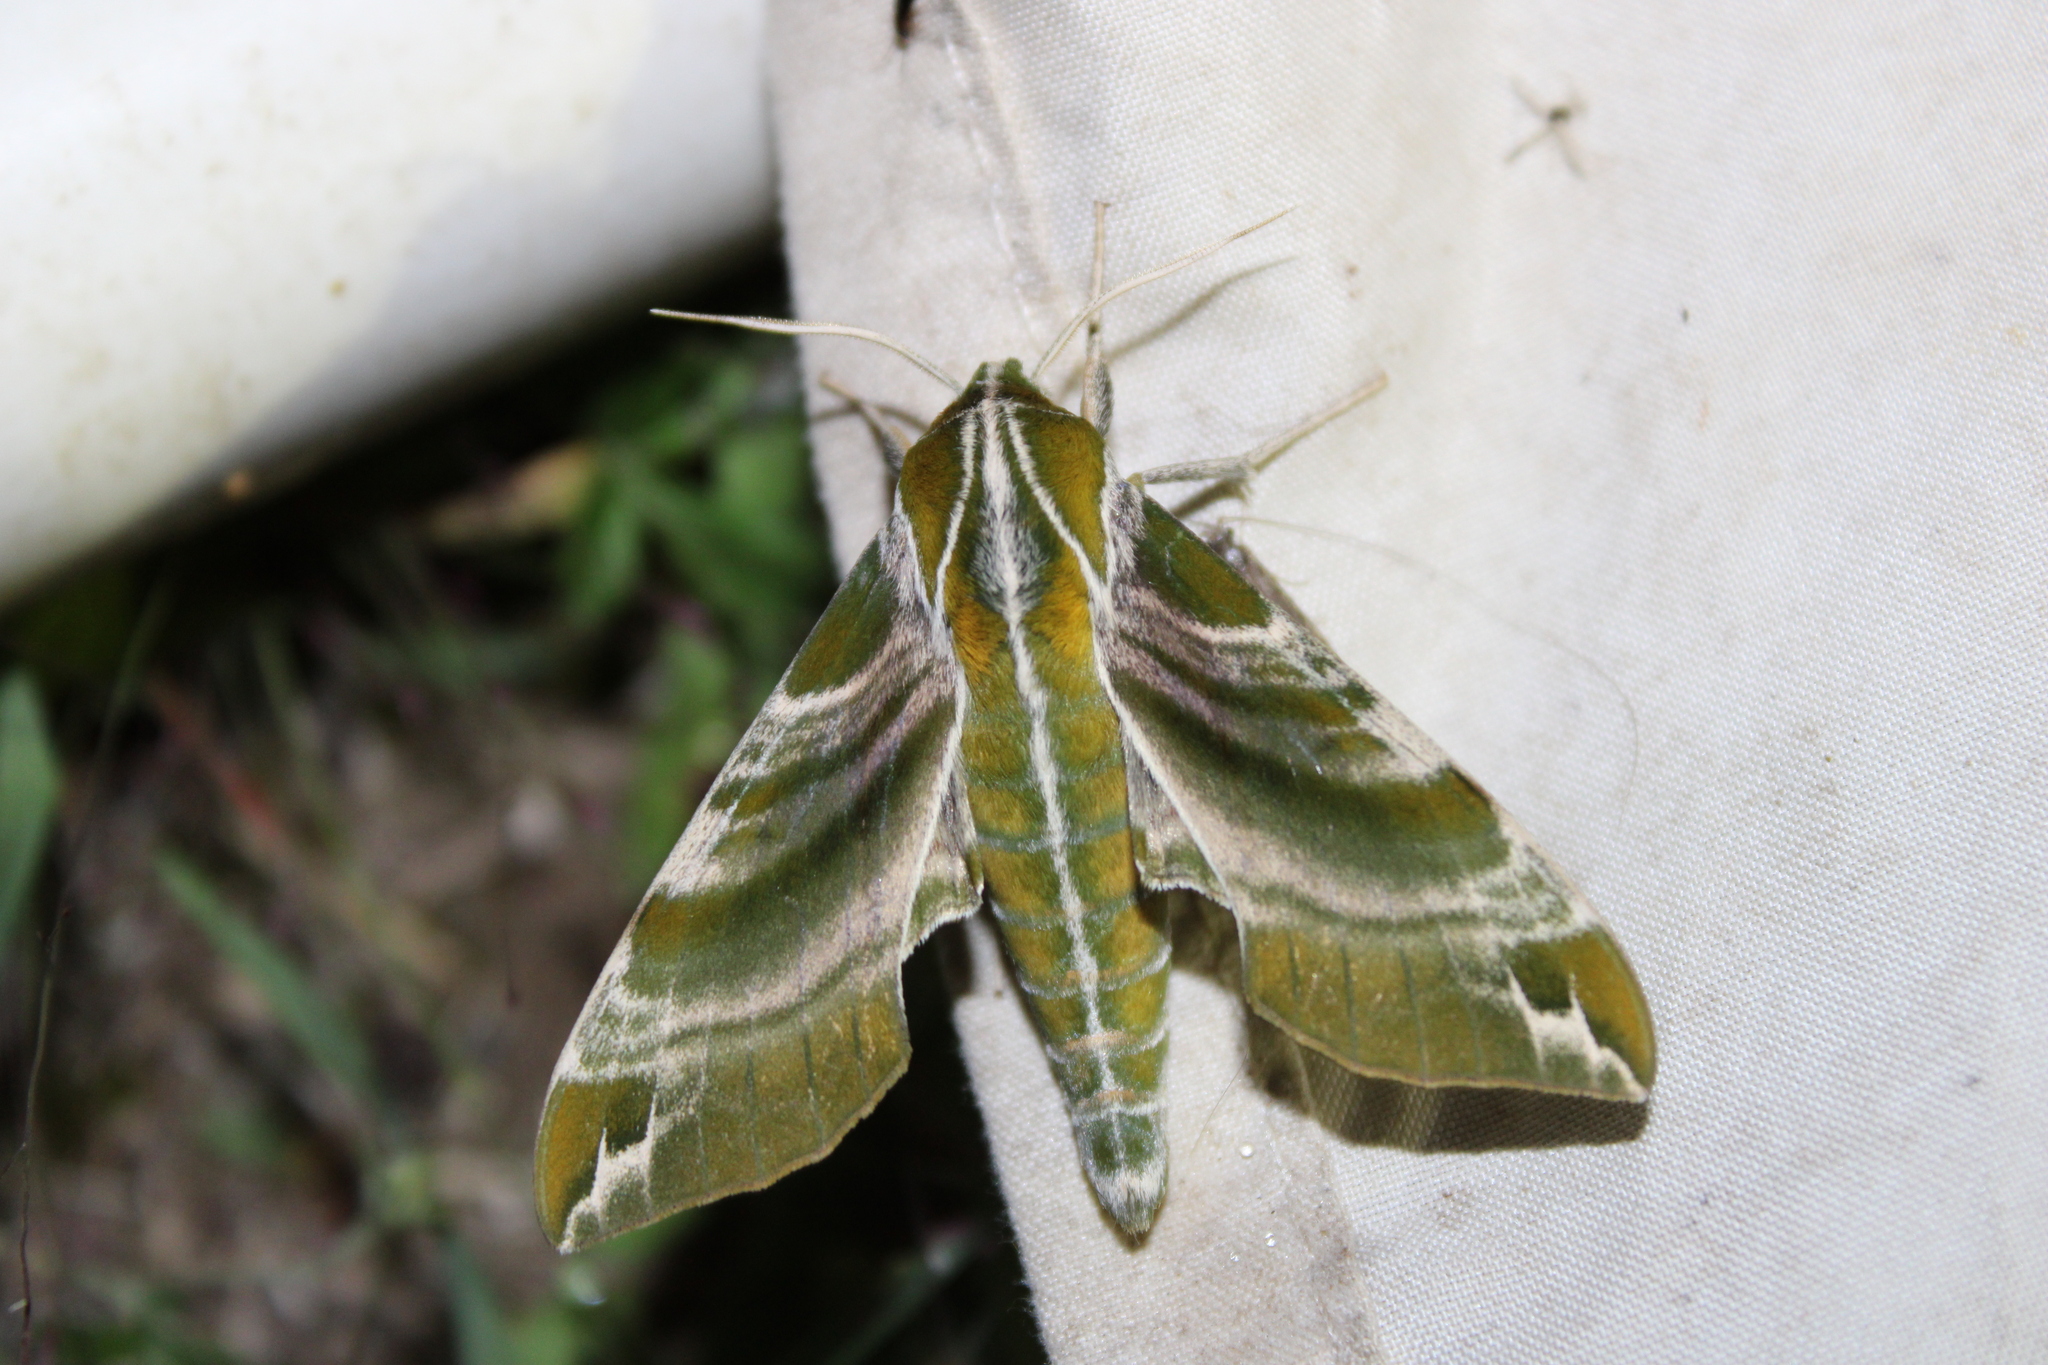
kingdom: Animalia
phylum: Arthropoda
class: Insecta
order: Lepidoptera
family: Sphingidae
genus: Darapsa
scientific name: Darapsa versicolor
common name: Hydrangea sphinx
